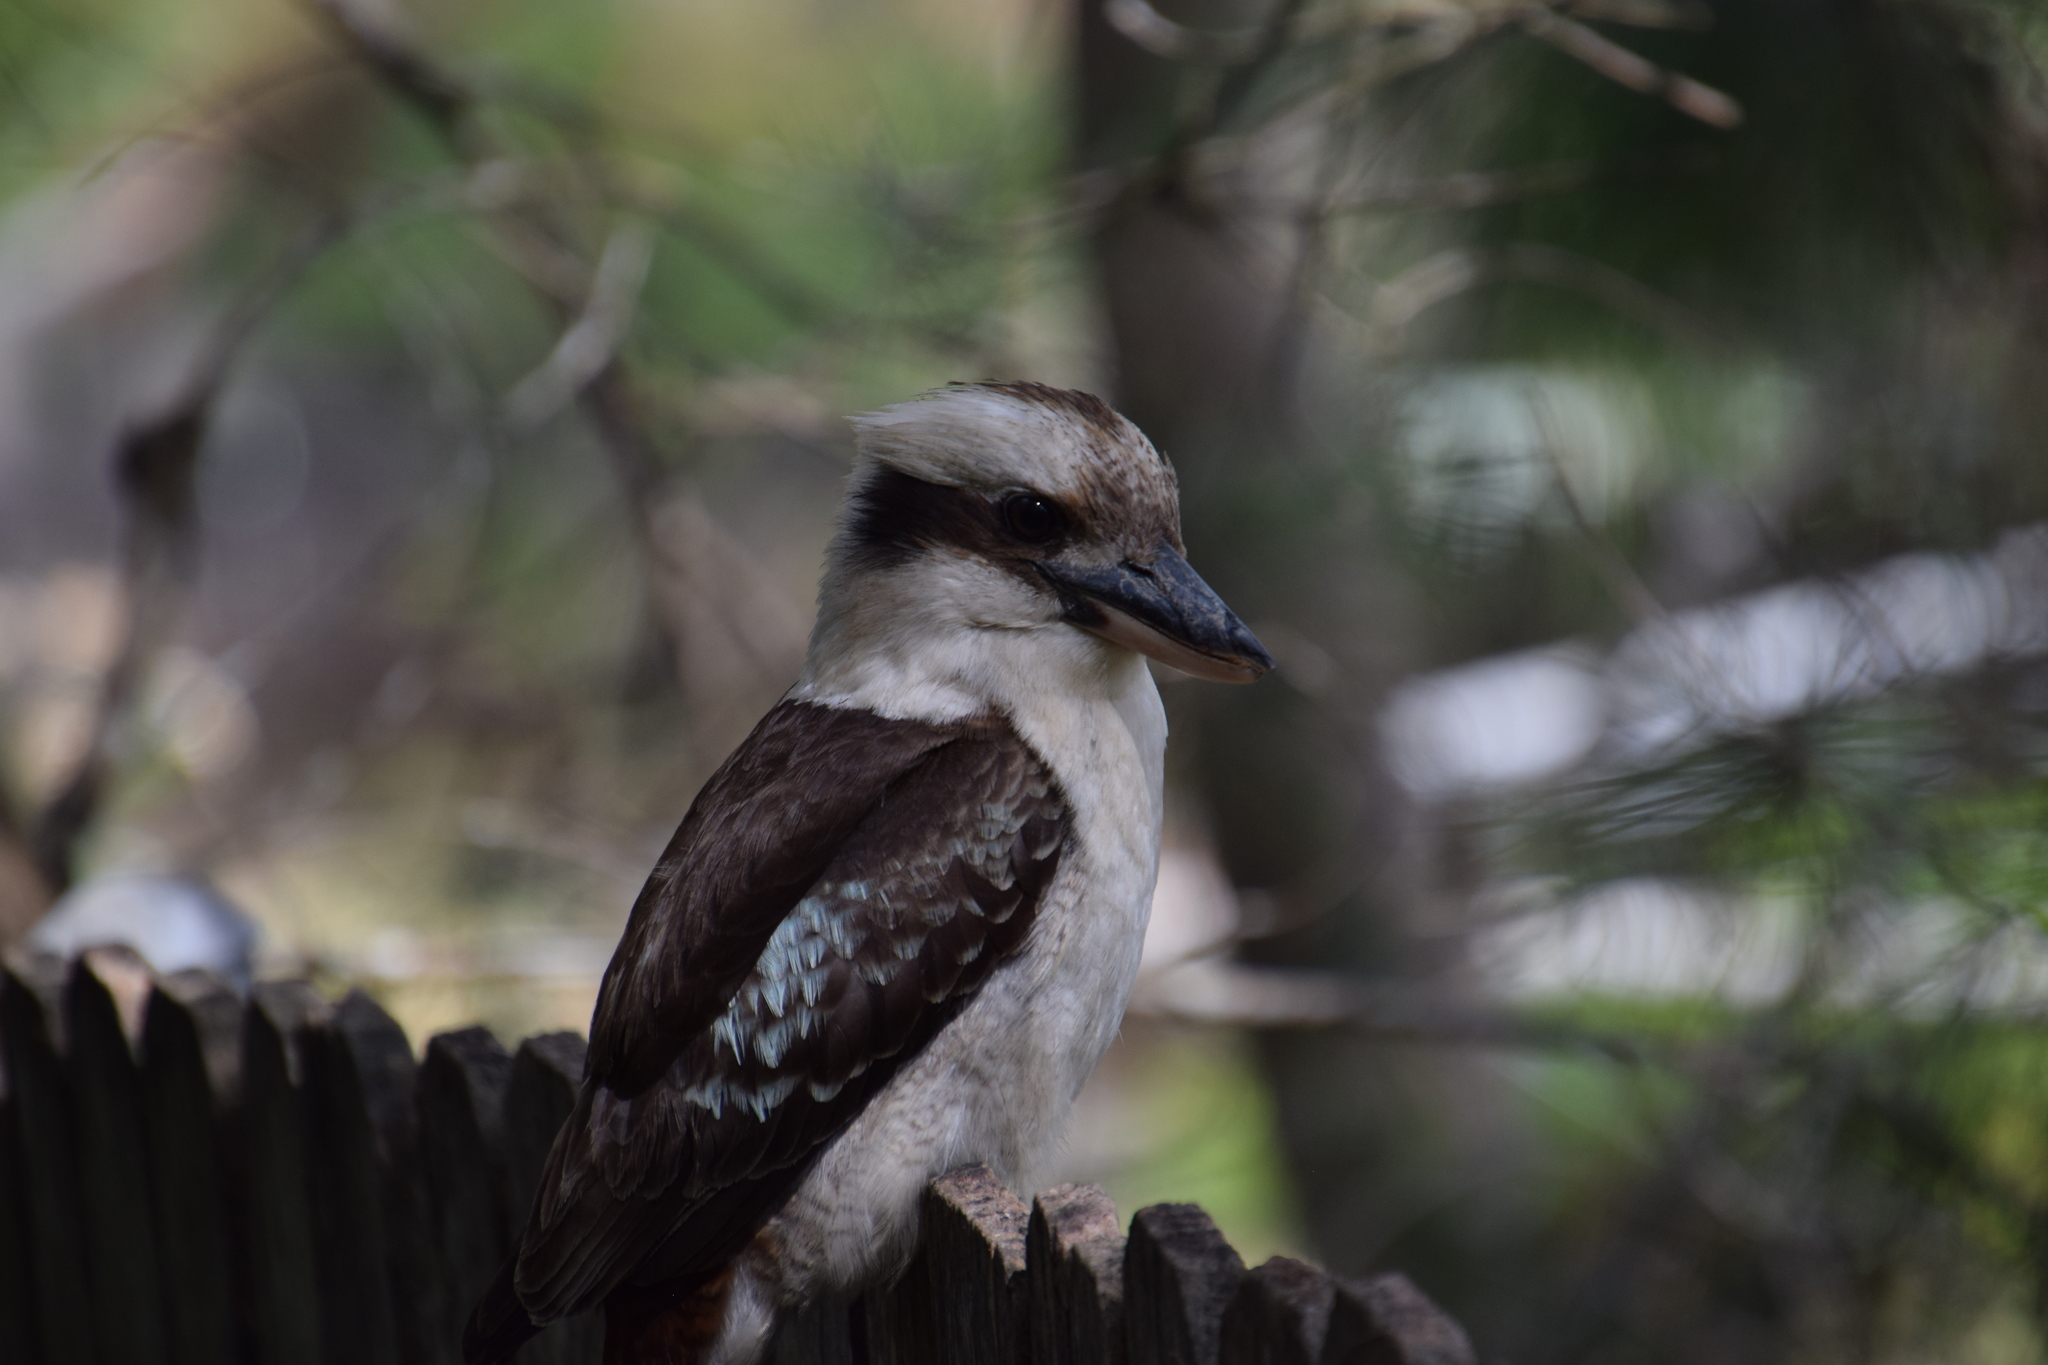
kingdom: Animalia
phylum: Chordata
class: Aves
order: Coraciiformes
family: Alcedinidae
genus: Dacelo
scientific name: Dacelo novaeguineae
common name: Laughing kookaburra
